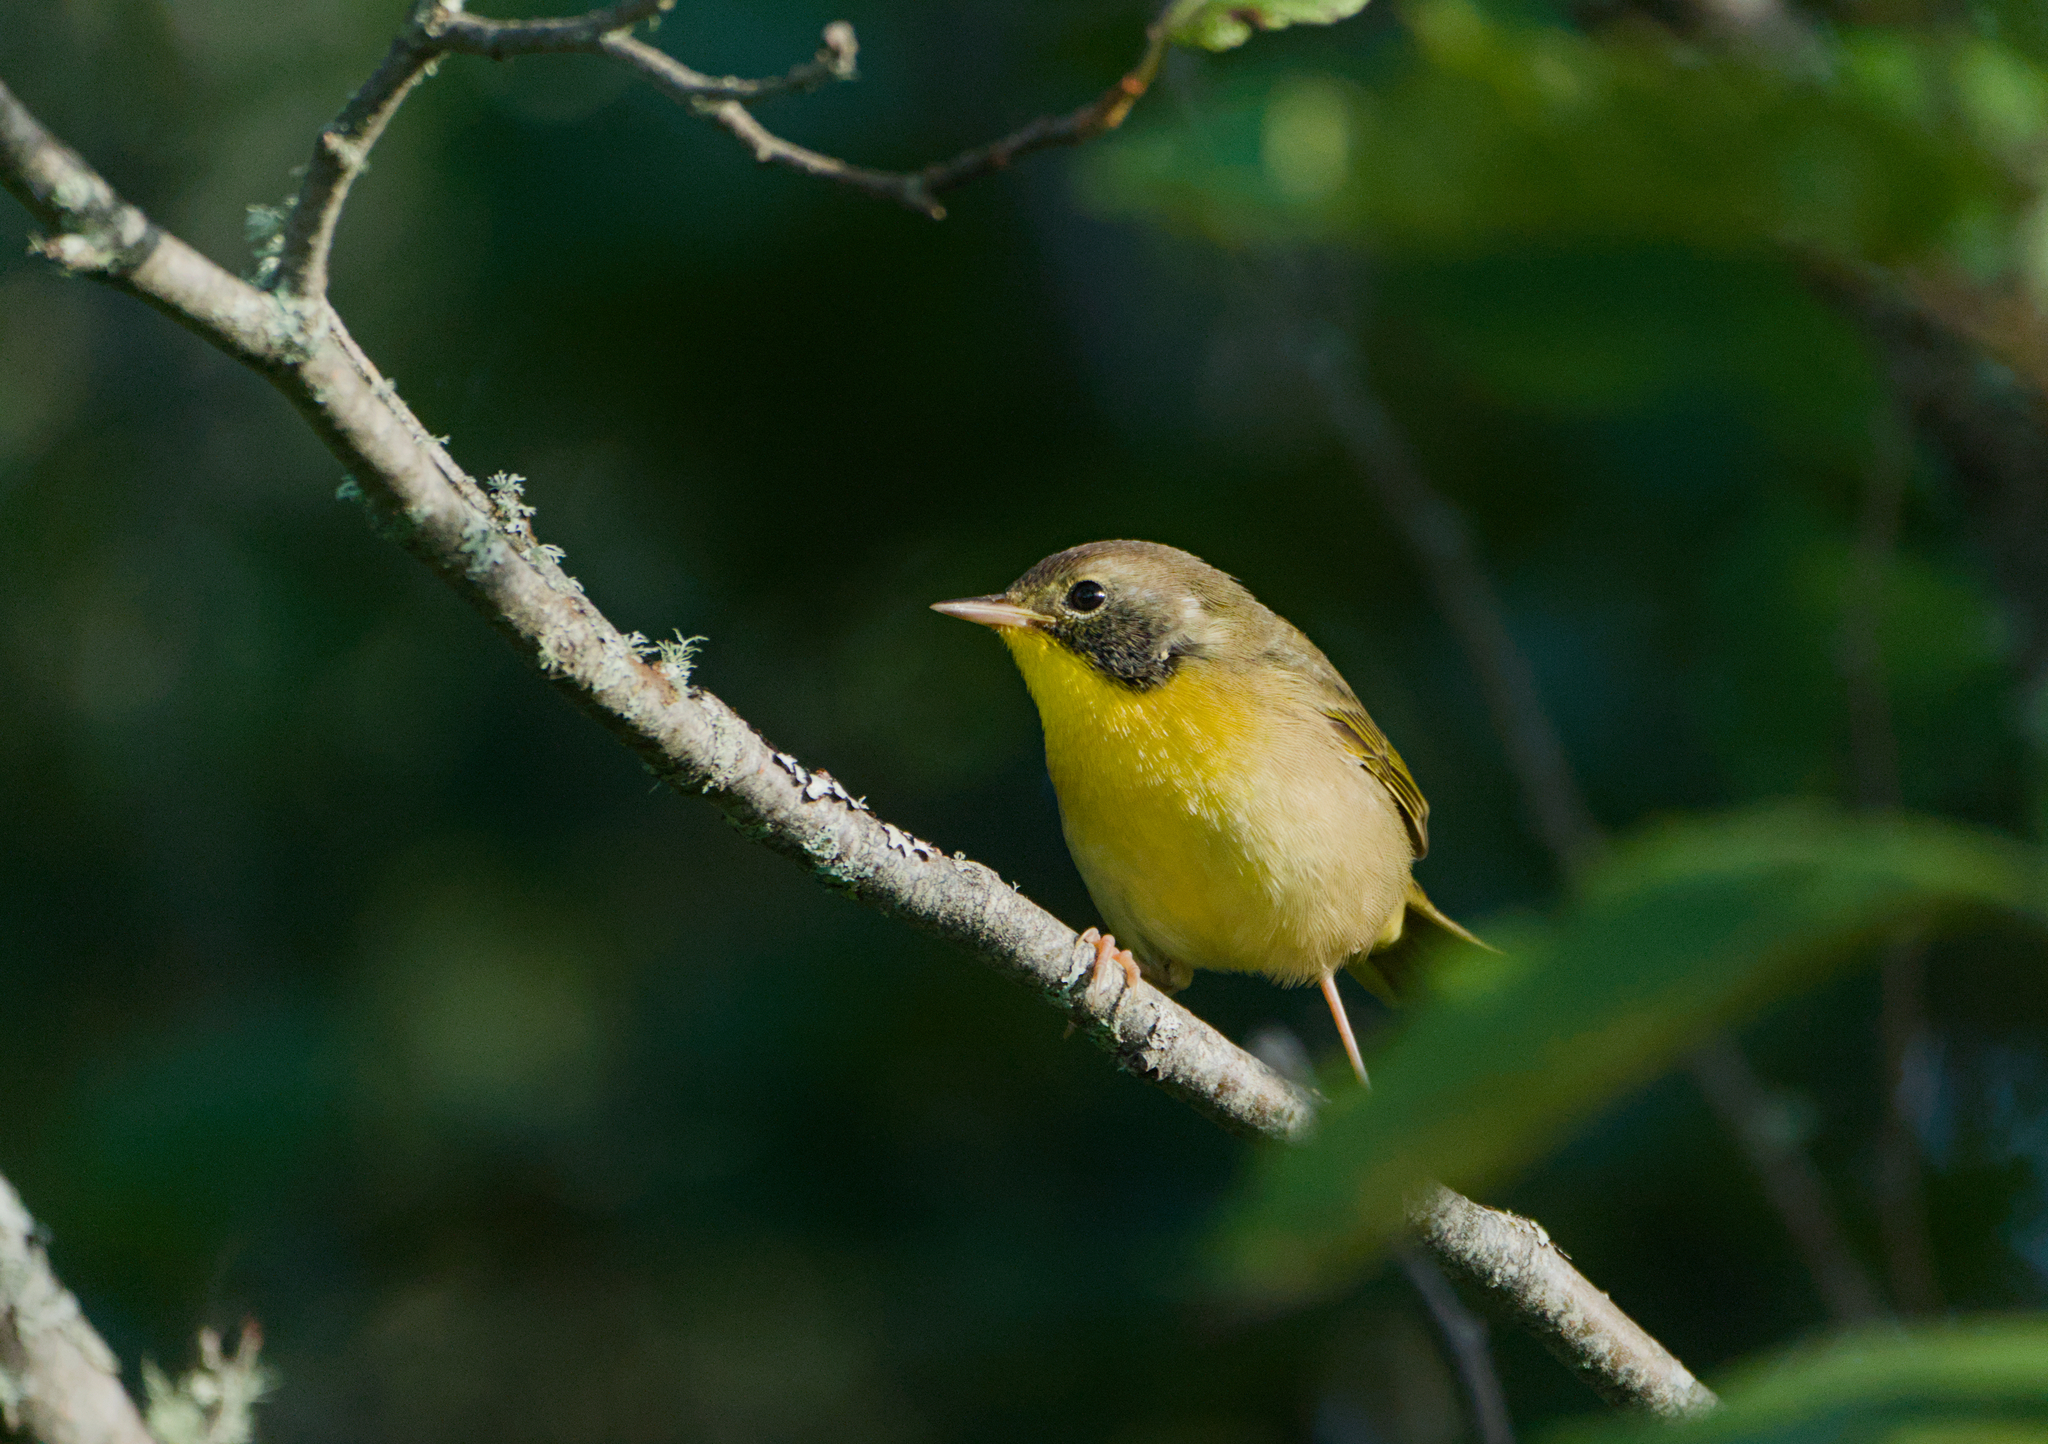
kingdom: Animalia
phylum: Chordata
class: Aves
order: Passeriformes
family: Parulidae
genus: Geothlypis
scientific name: Geothlypis trichas
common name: Common yellowthroat
